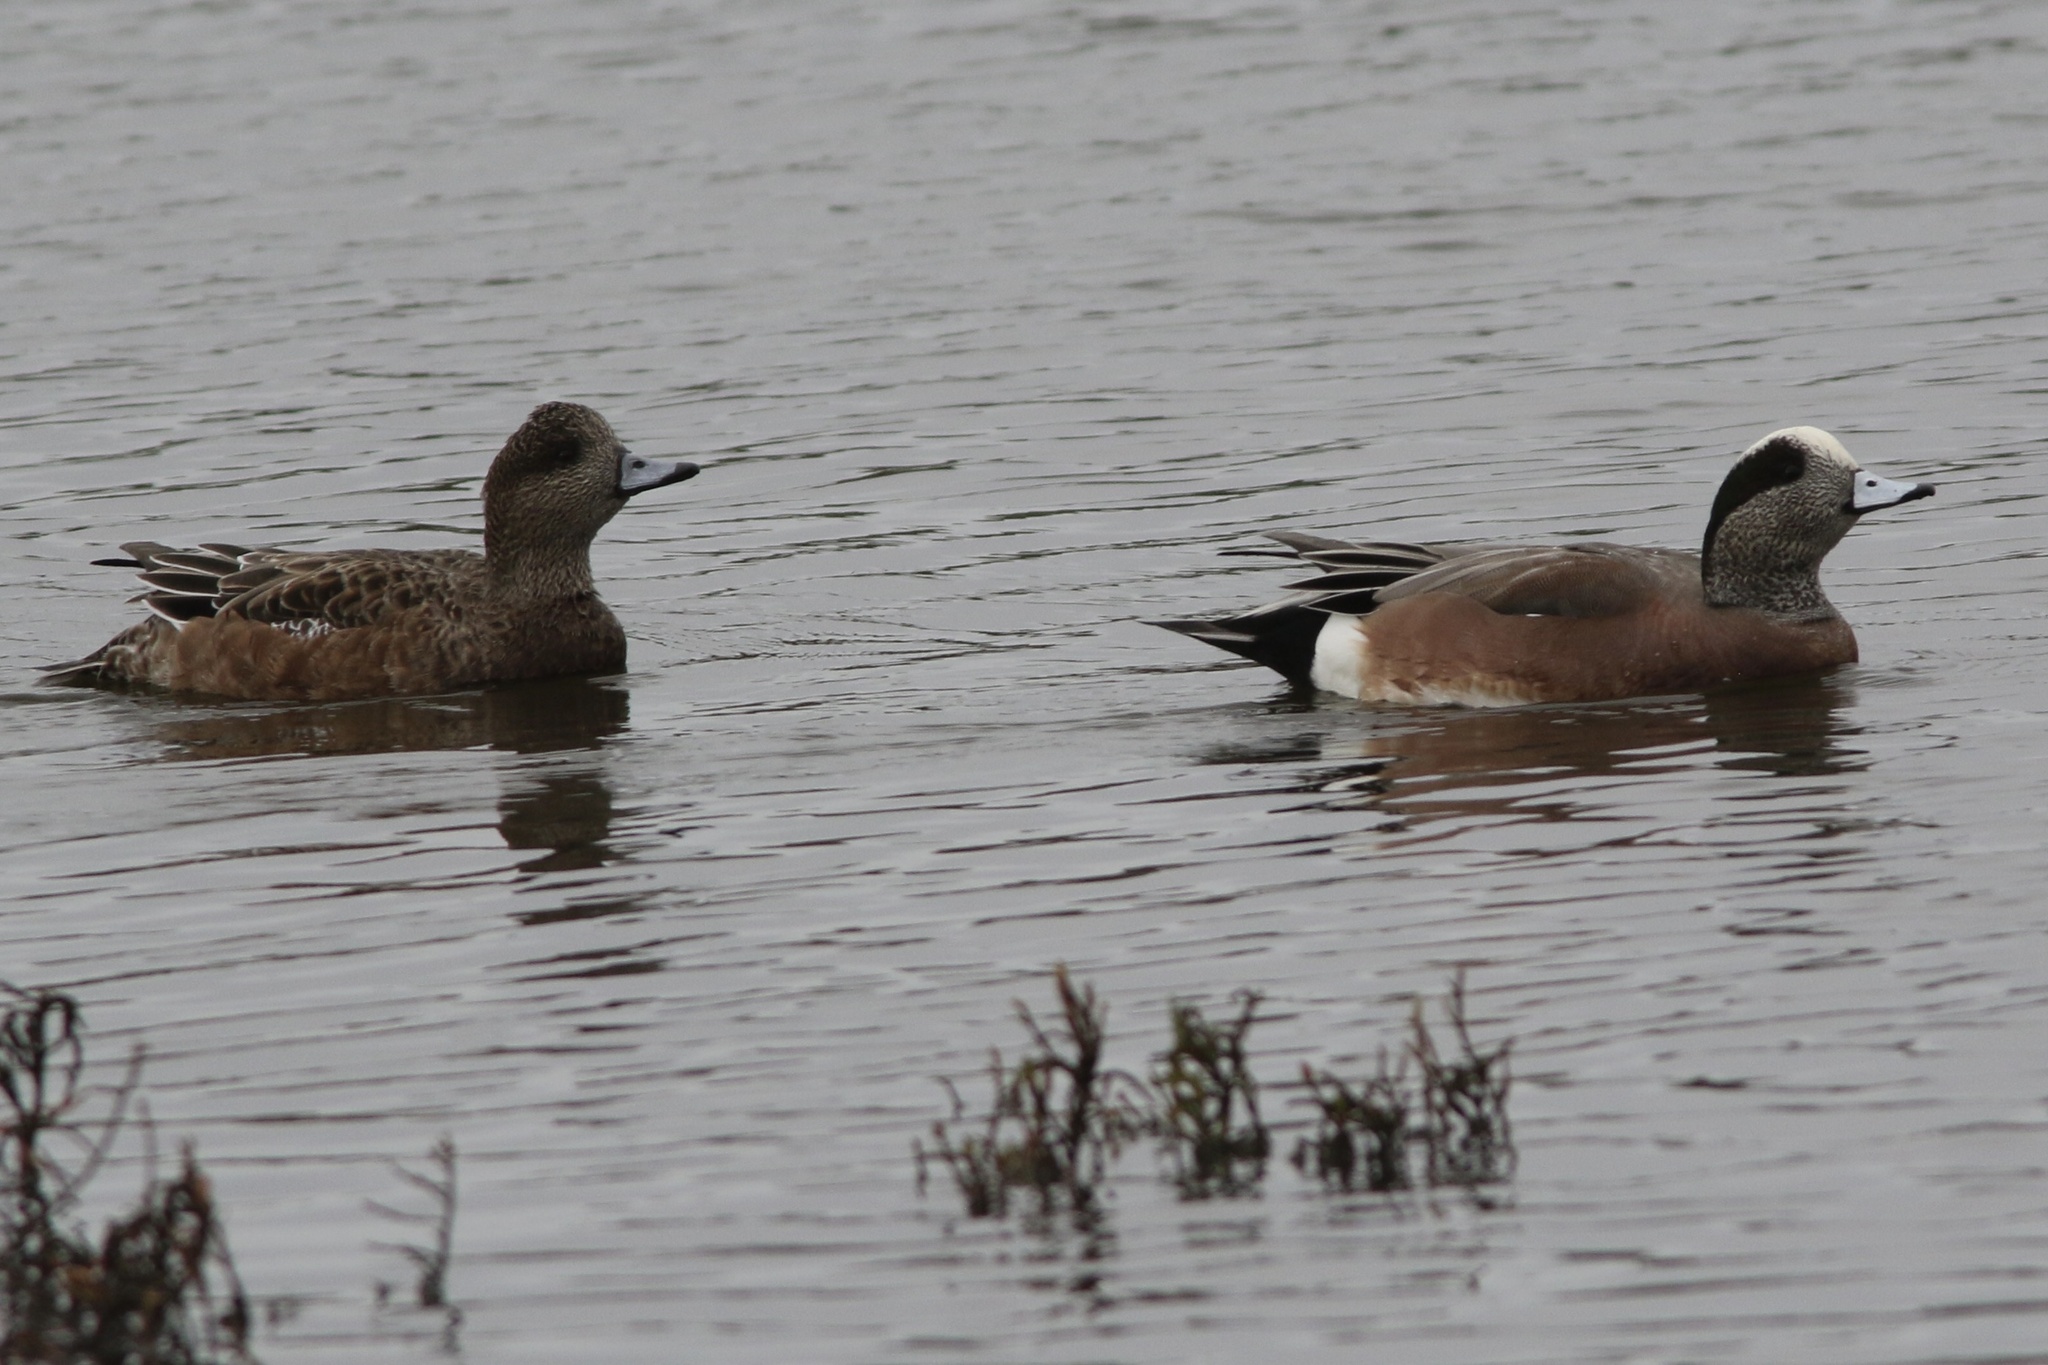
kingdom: Animalia
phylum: Chordata
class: Aves
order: Anseriformes
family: Anatidae
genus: Mareca
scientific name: Mareca americana
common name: American wigeon
